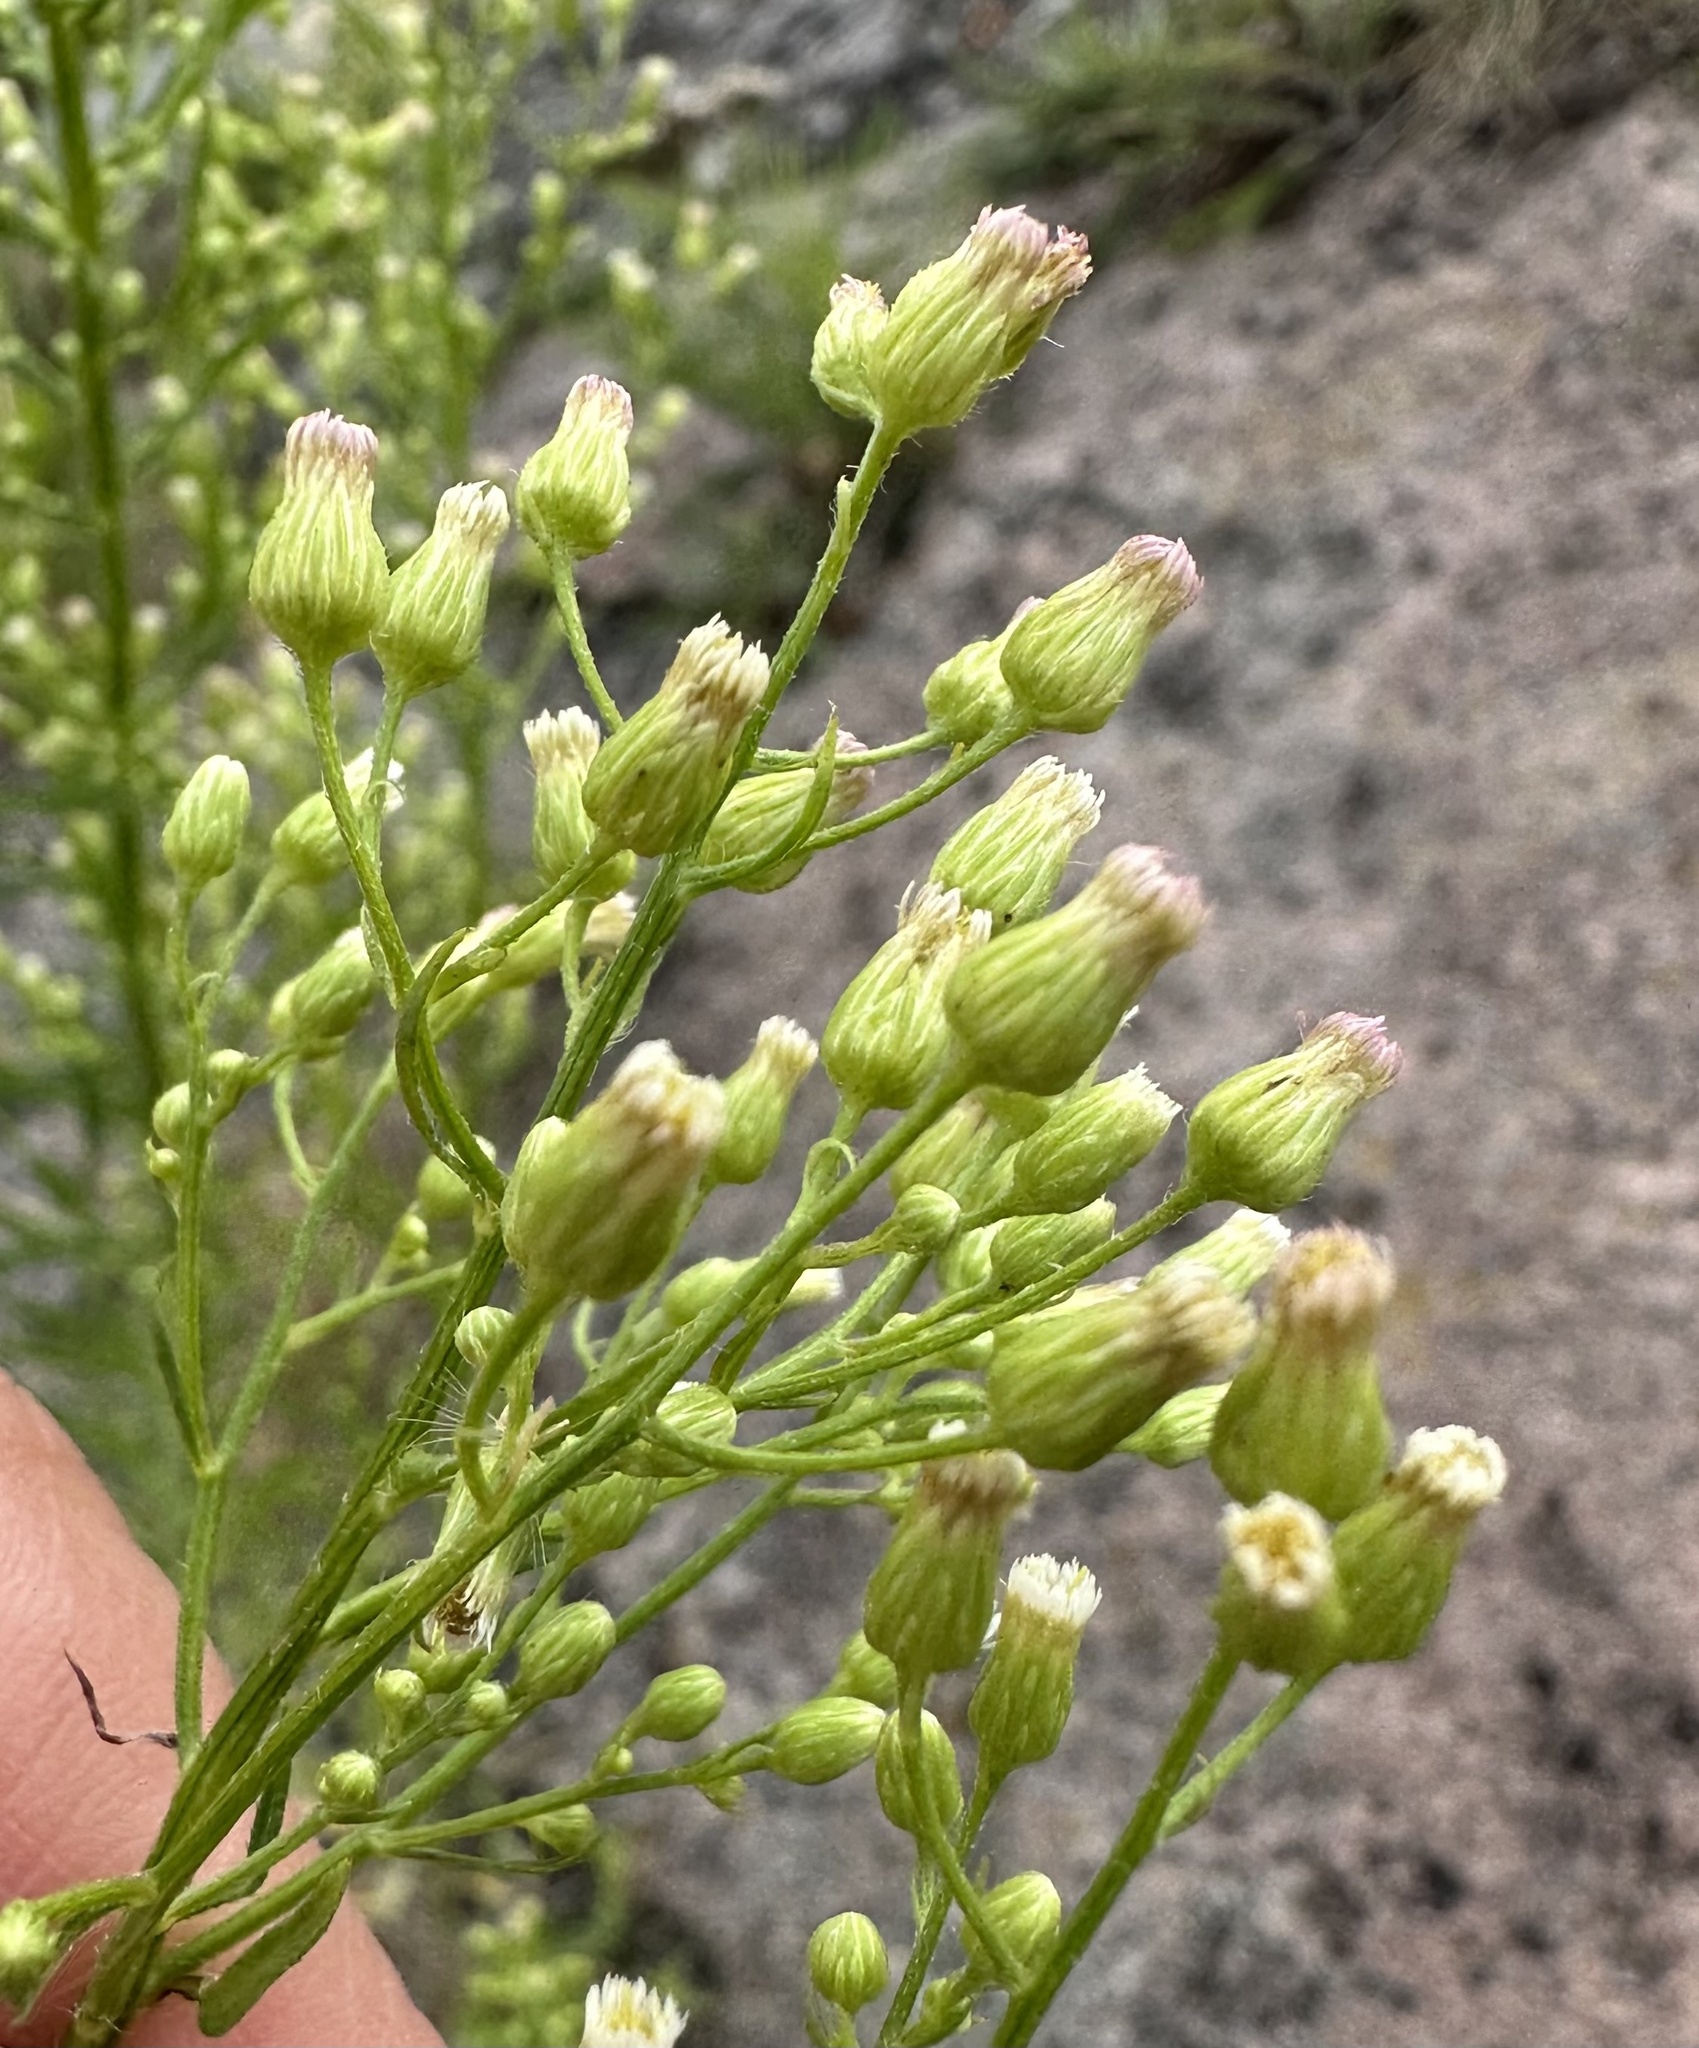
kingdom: Plantae
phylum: Tracheophyta
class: Magnoliopsida
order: Asterales
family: Asteraceae
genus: Erigeron
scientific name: Erigeron canadensis
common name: Canadian fleabane
